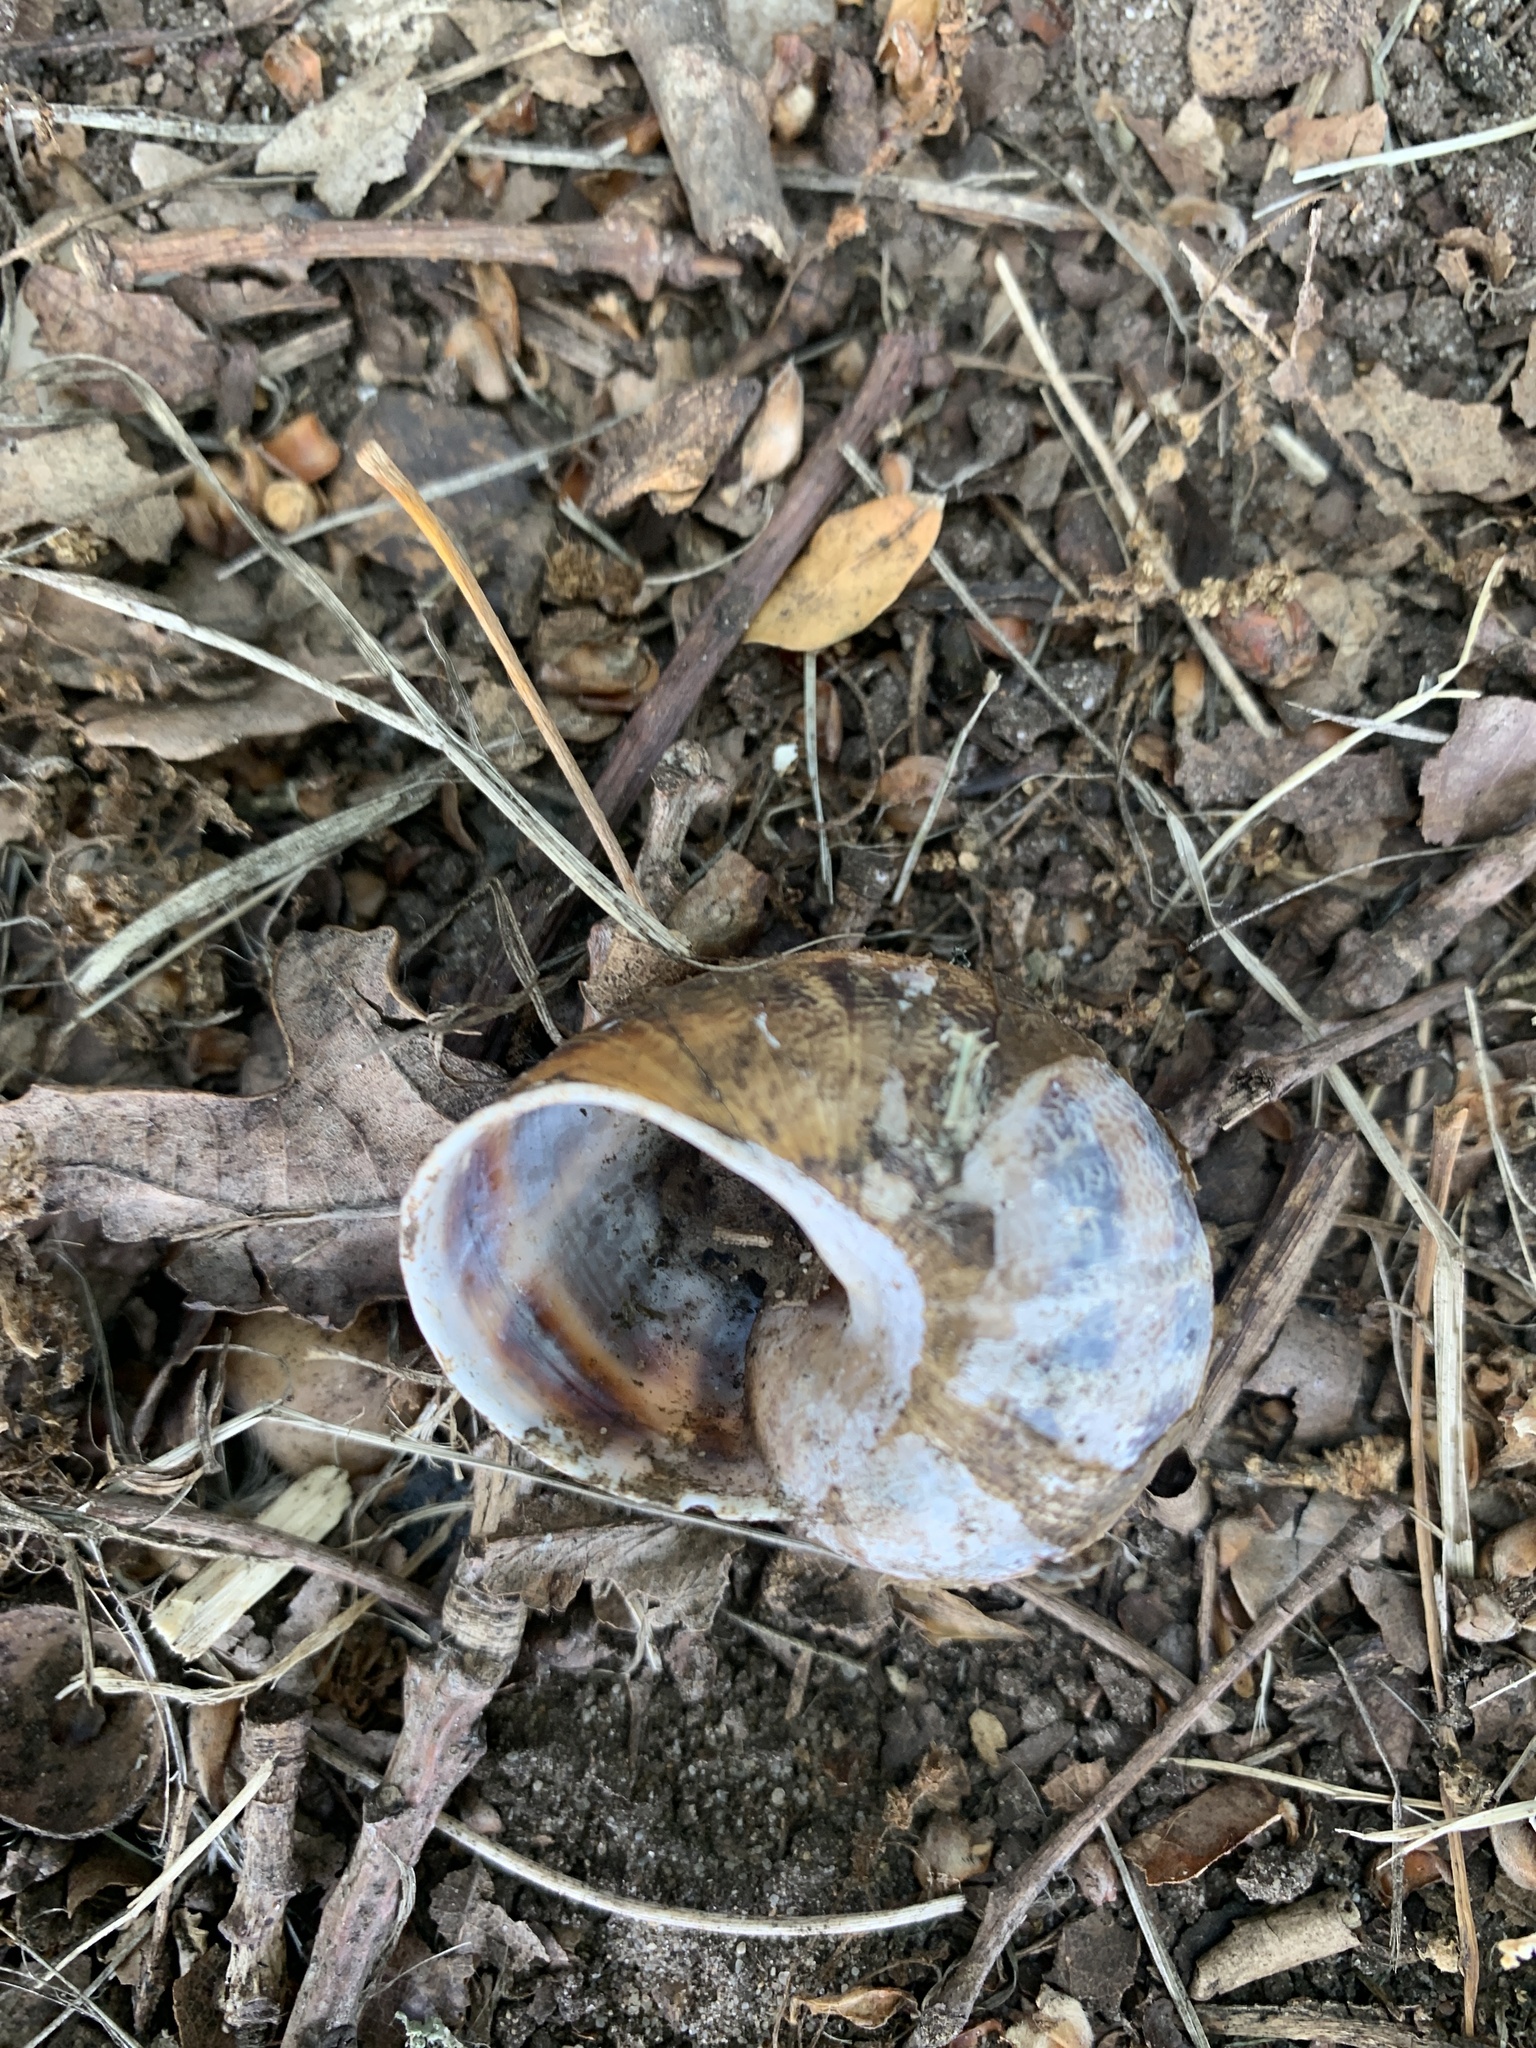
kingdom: Animalia
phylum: Mollusca
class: Gastropoda
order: Stylommatophora
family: Helicidae
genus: Cornu
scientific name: Cornu aspersum
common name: Brown garden snail
